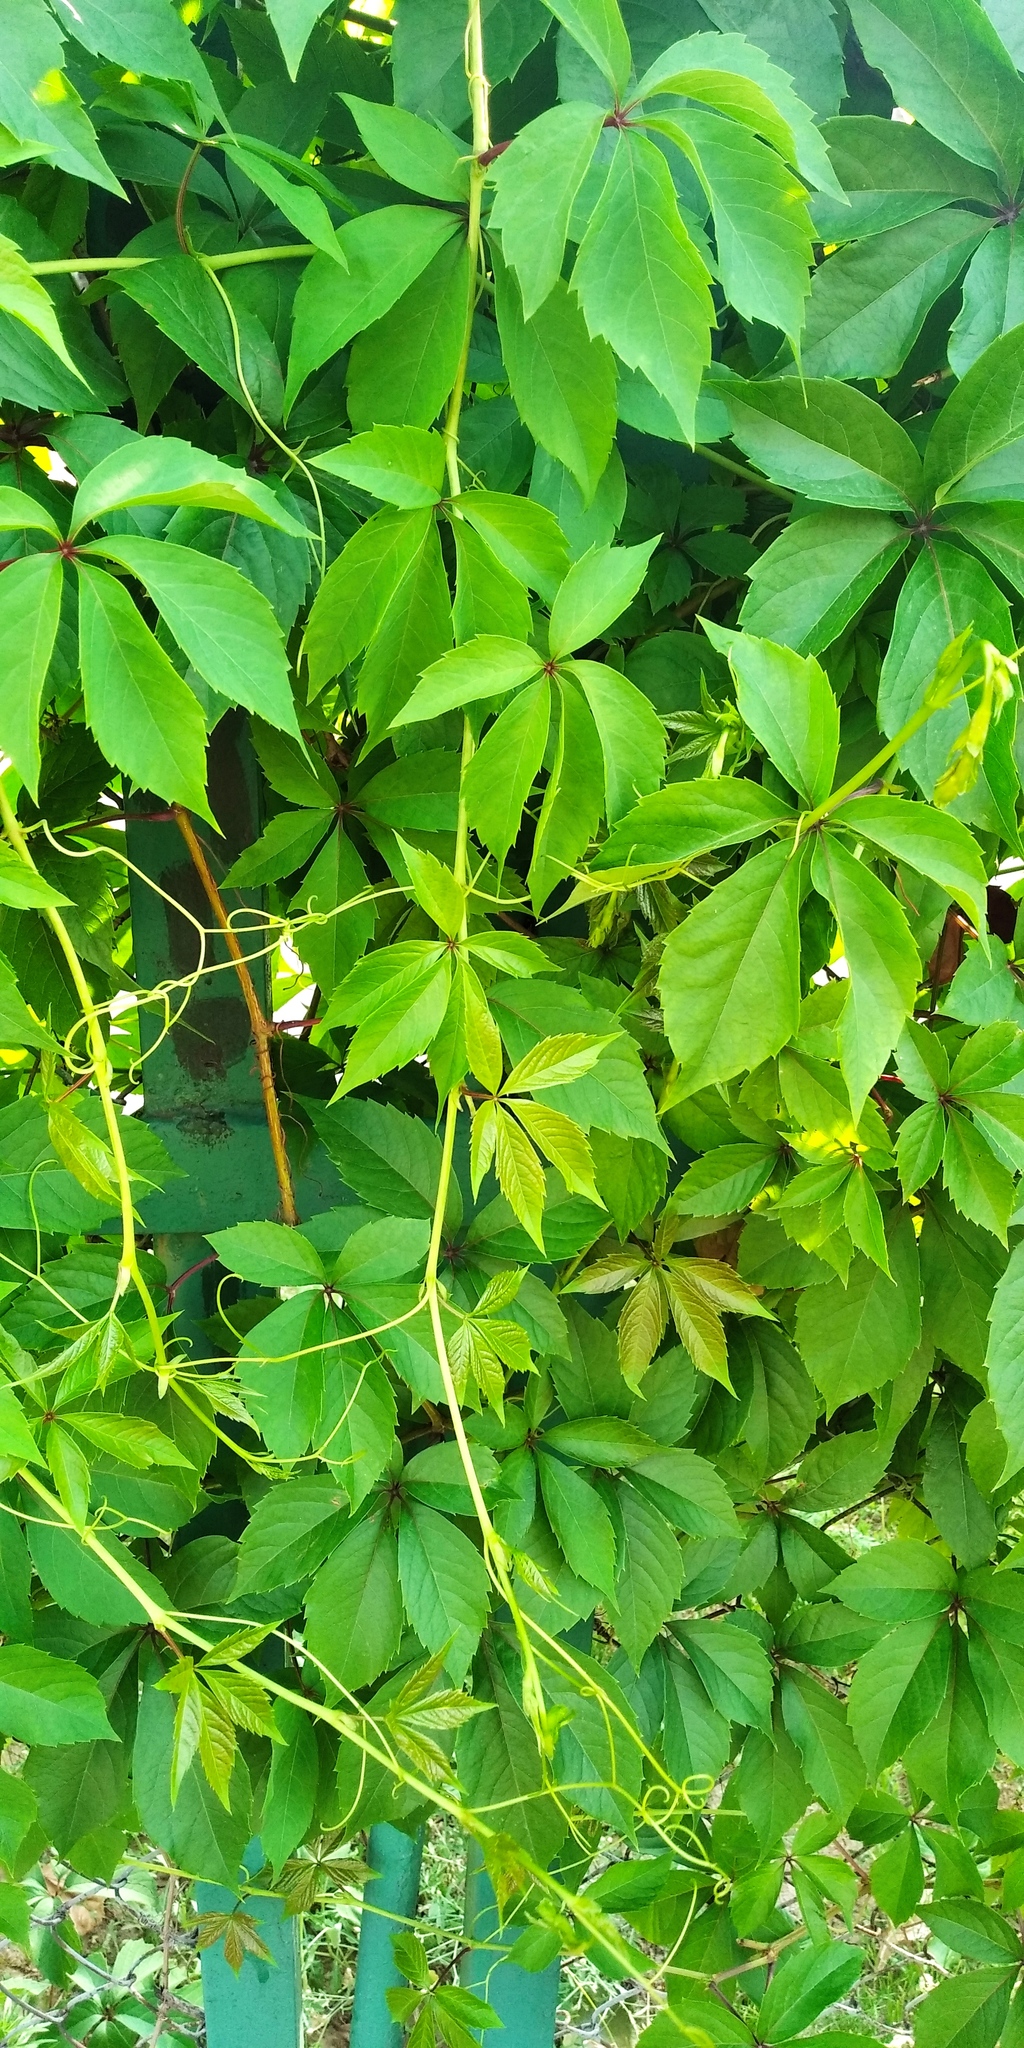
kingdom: Plantae
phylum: Tracheophyta
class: Magnoliopsida
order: Vitales
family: Vitaceae
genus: Parthenocissus
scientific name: Parthenocissus inserta
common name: False virginia-creeper
